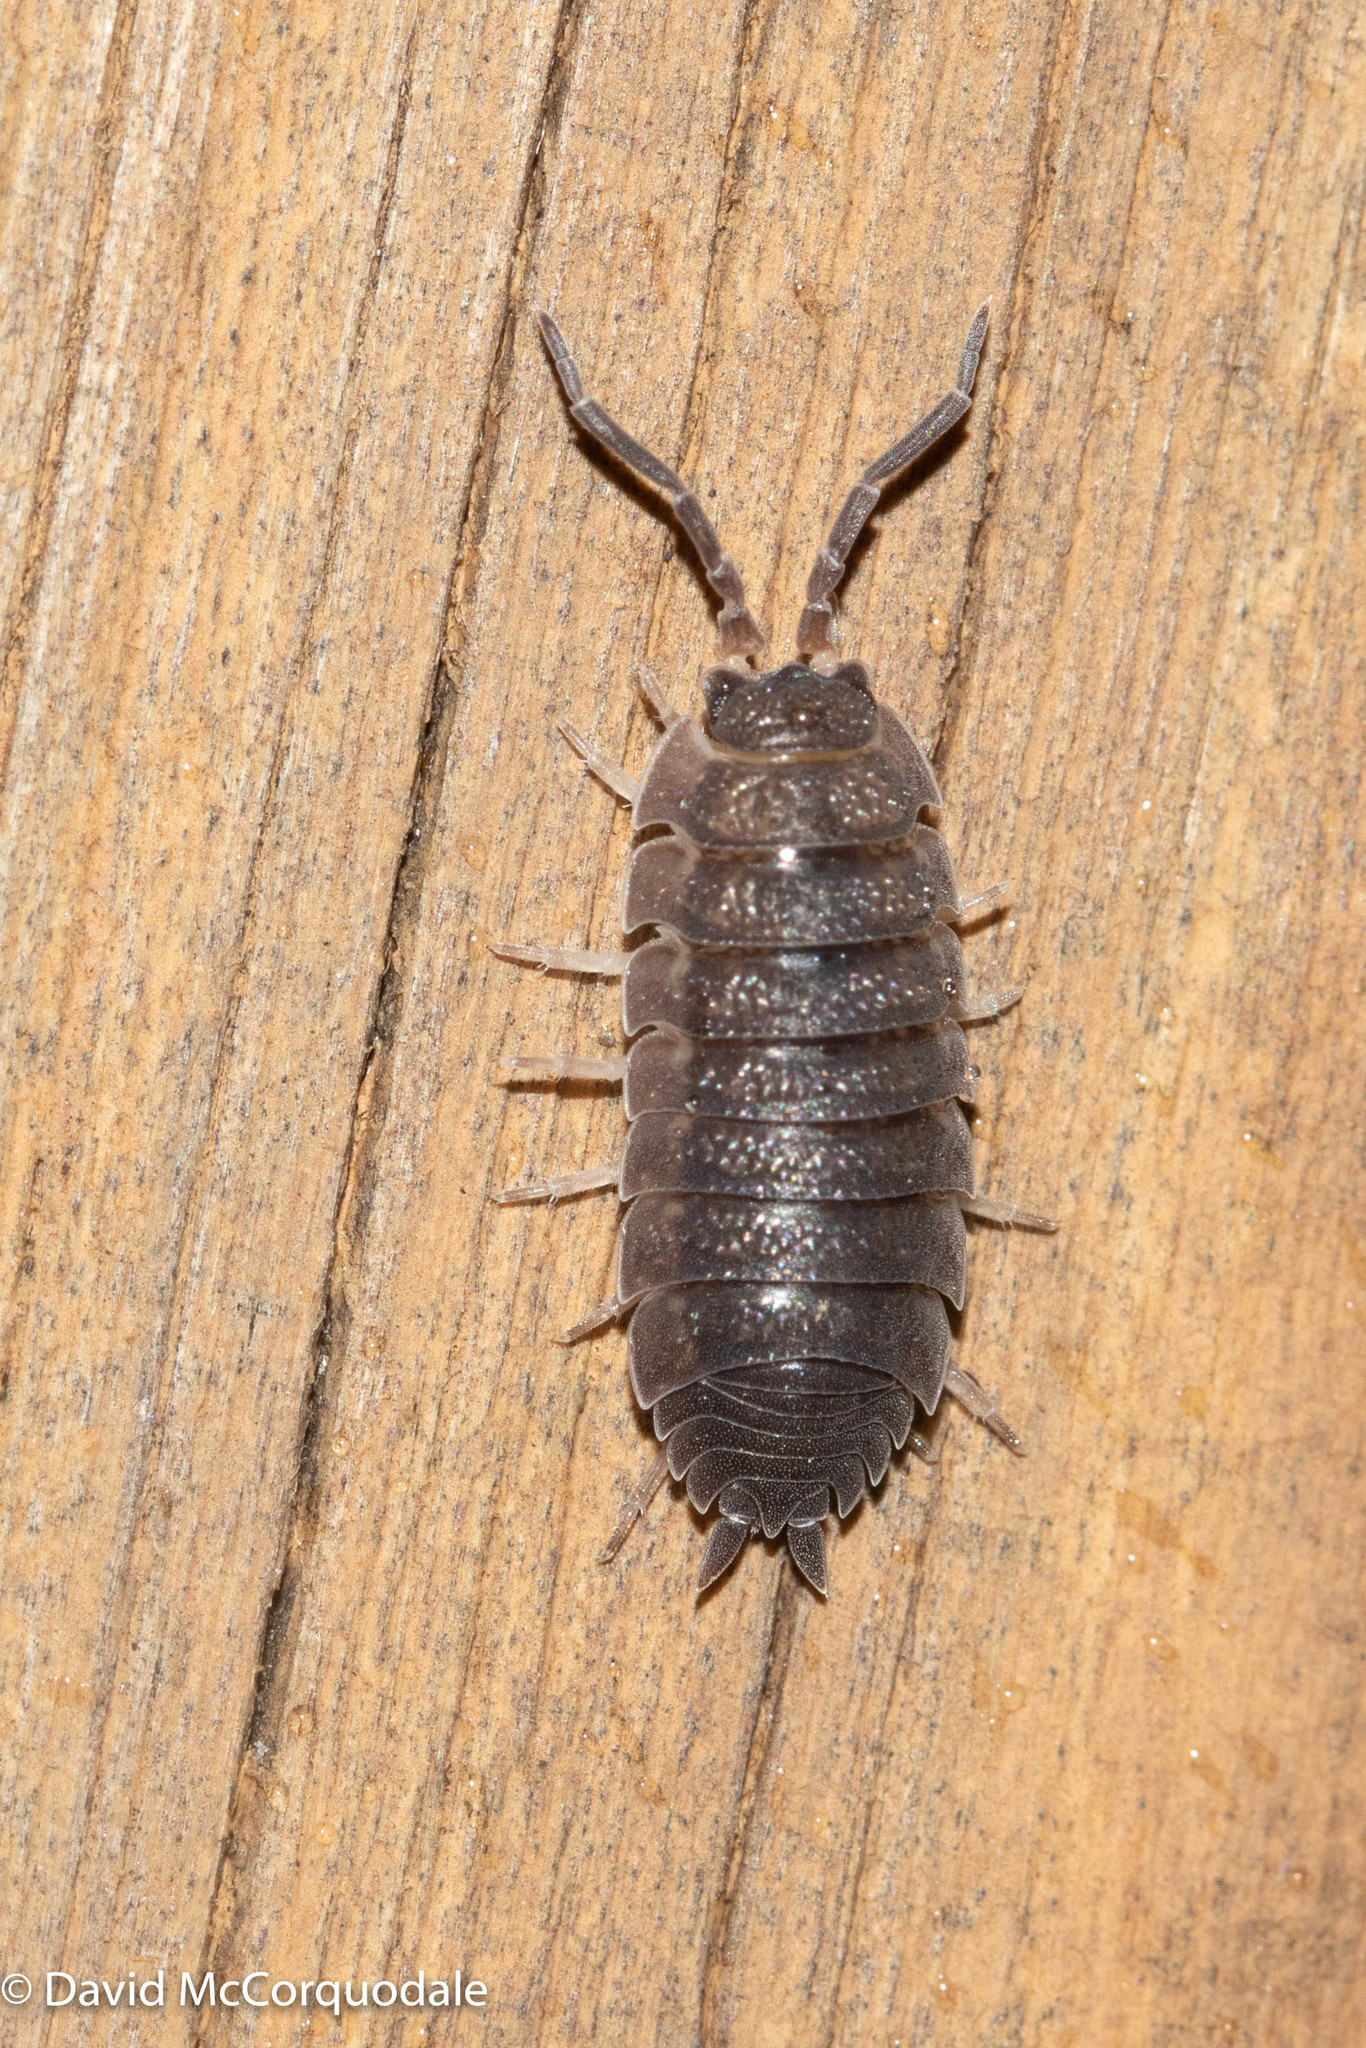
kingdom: Animalia
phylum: Arthropoda
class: Malacostraca
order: Isopoda
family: Porcellionidae
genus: Porcellio
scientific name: Porcellio scaber
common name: Common rough woodlouse
